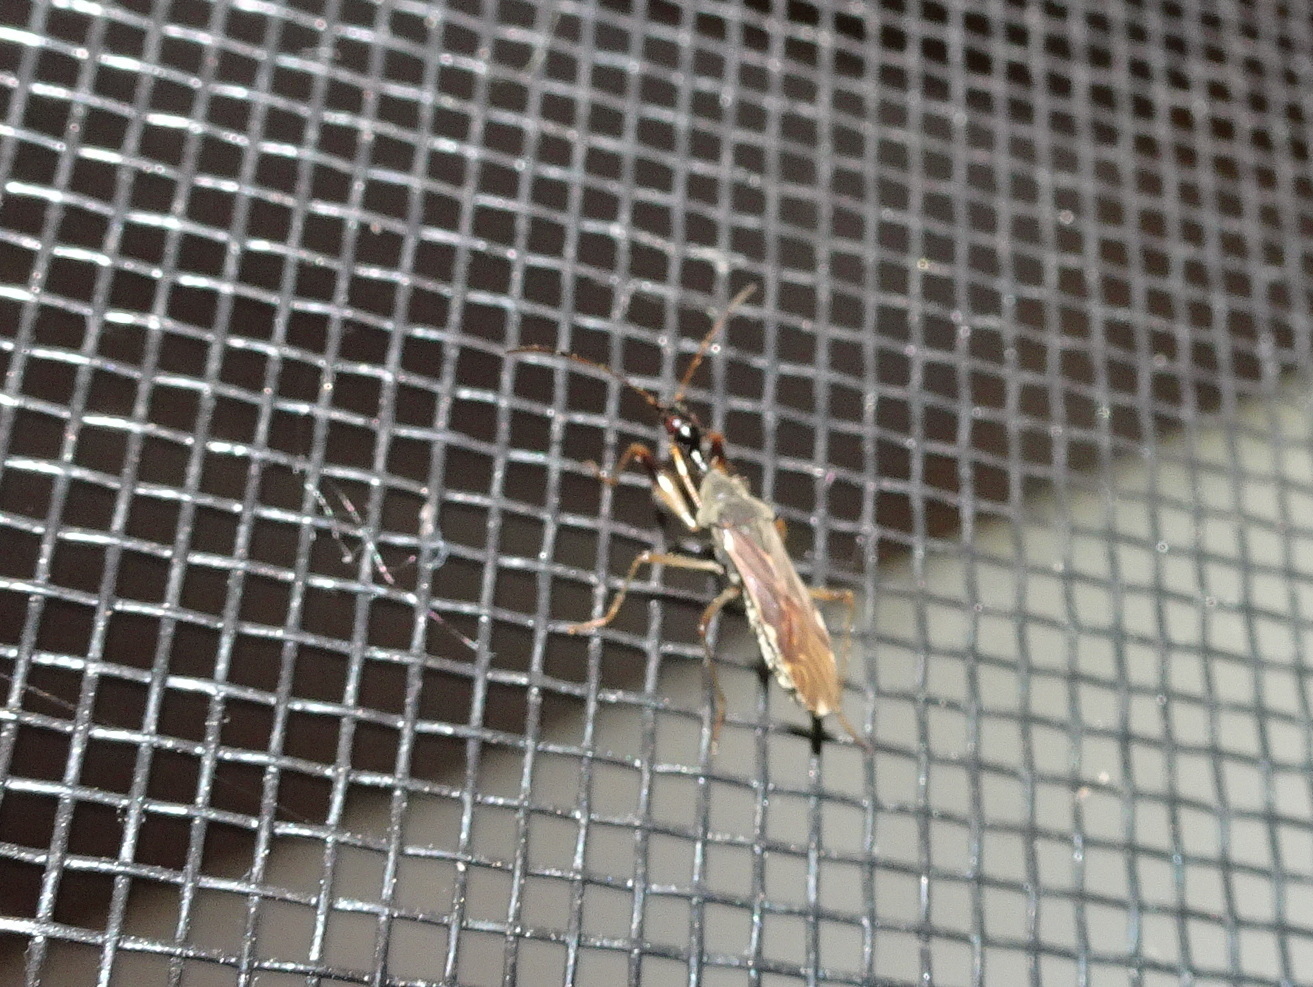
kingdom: Animalia
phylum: Arthropoda
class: Insecta
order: Hemiptera
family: Rhyparochromidae
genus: Myodocha
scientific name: Myodocha serripes
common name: Long-necked seed bug
